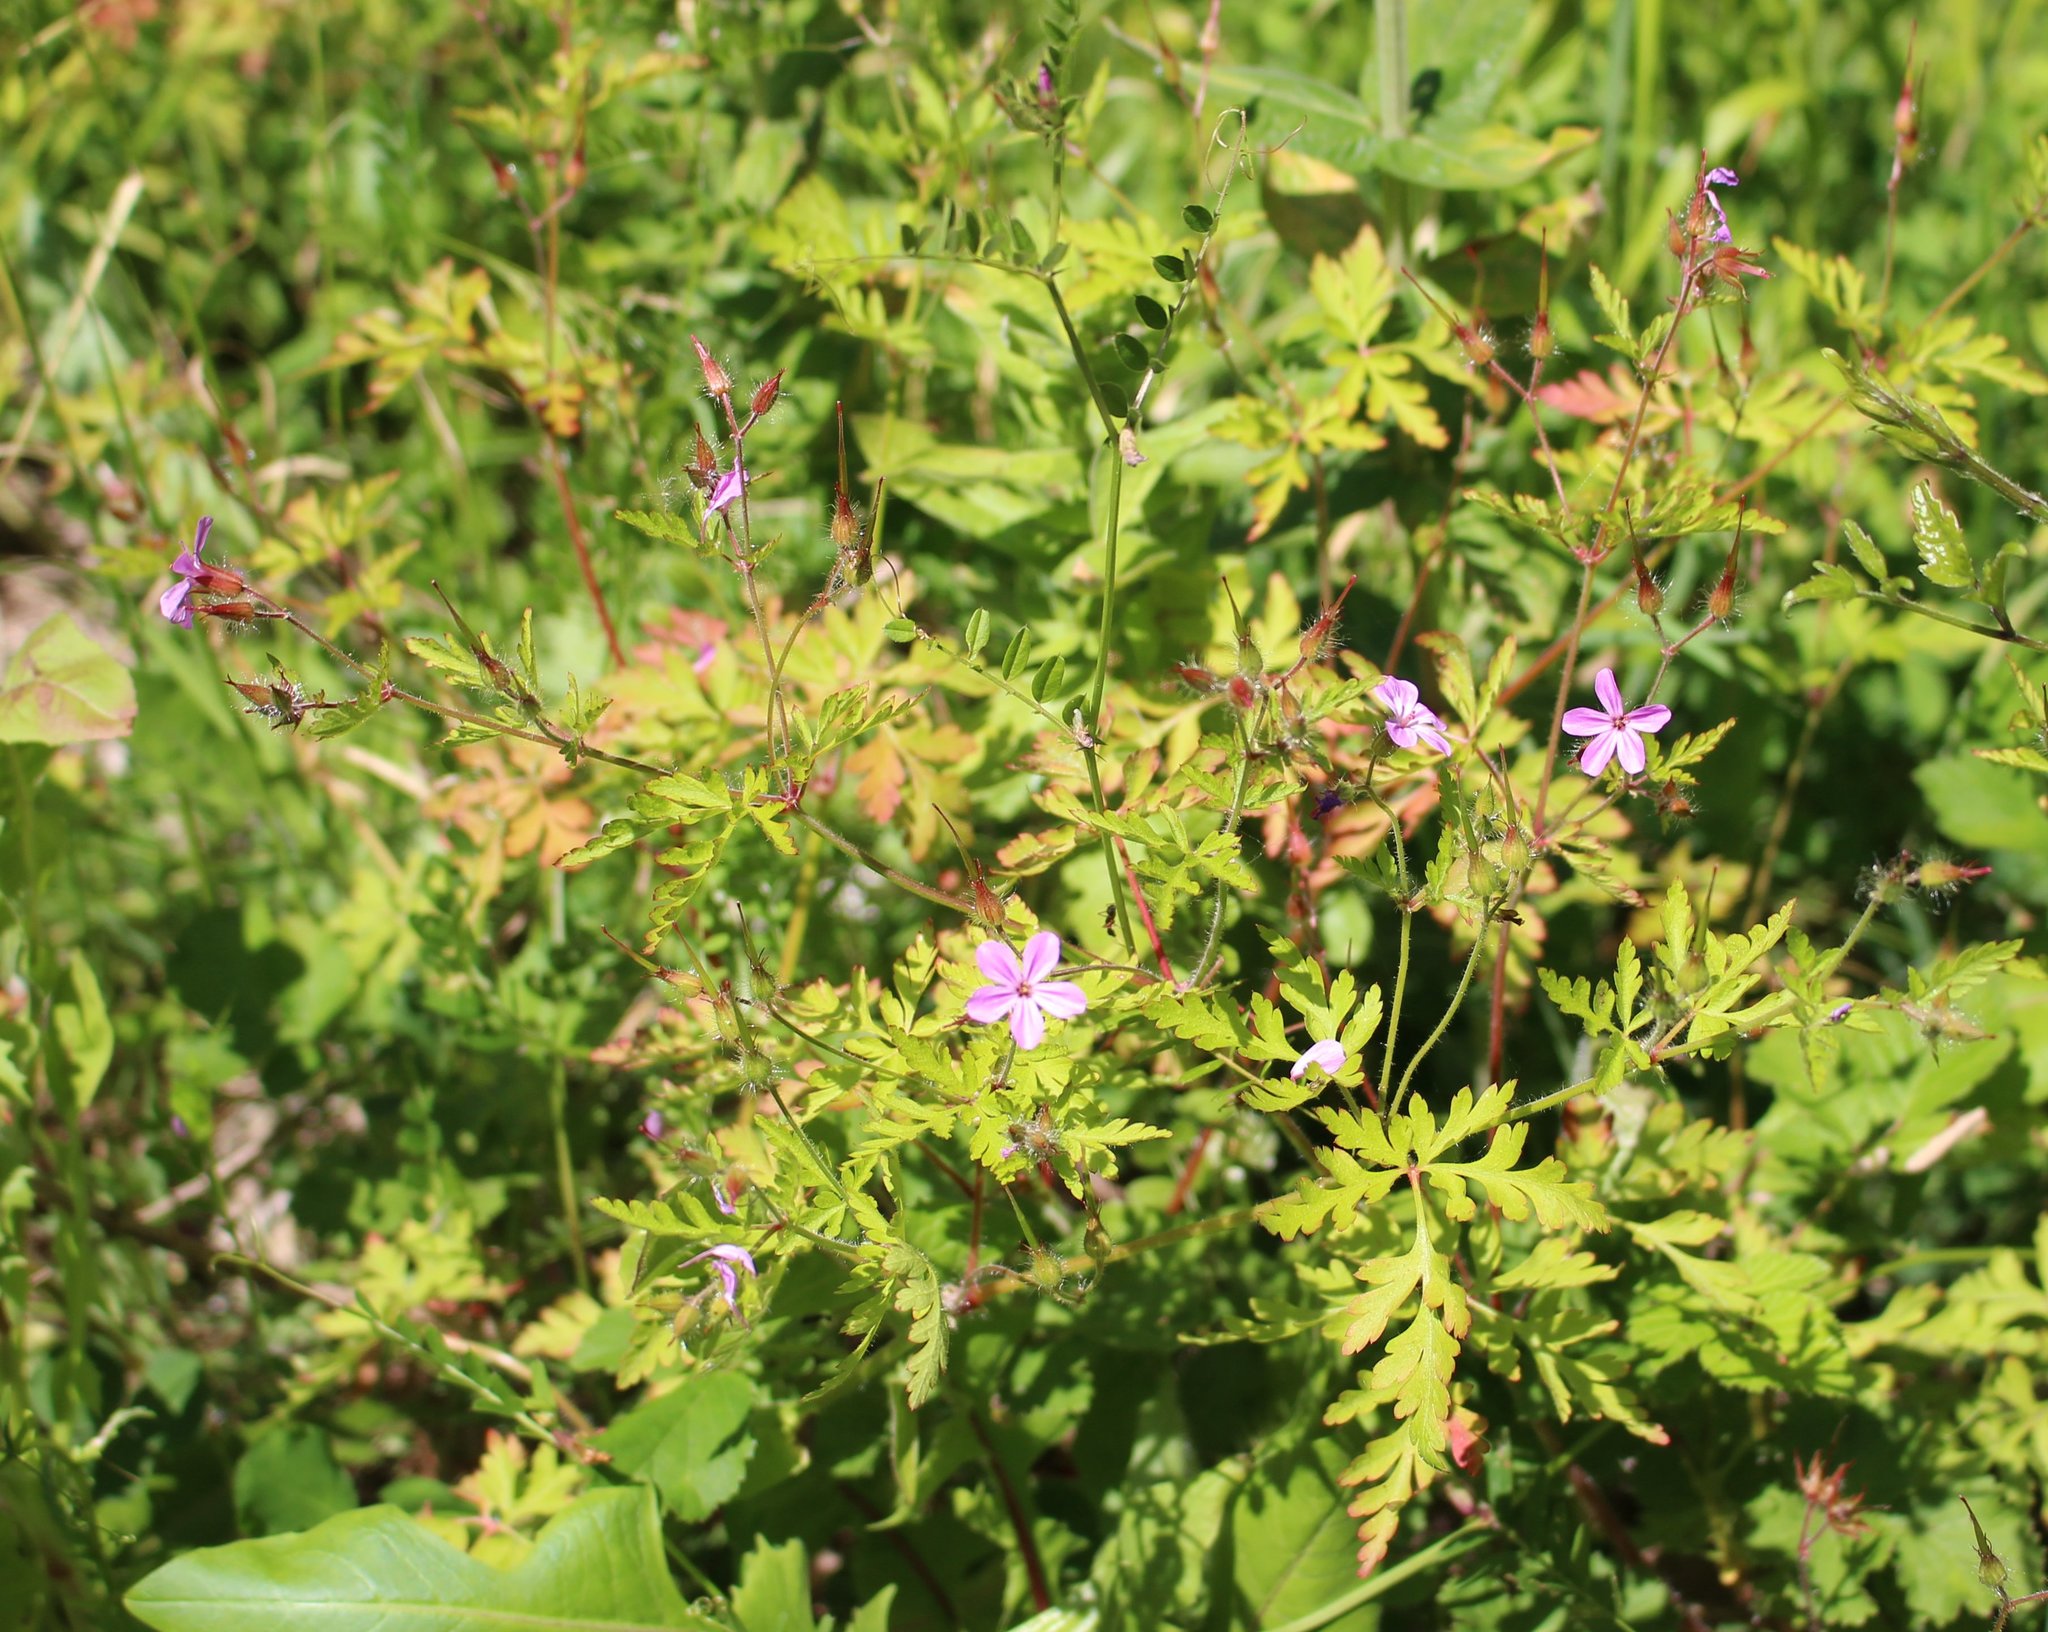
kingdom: Plantae
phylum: Tracheophyta
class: Magnoliopsida
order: Geraniales
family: Geraniaceae
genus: Geranium
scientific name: Geranium robertianum
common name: Herb-robert
